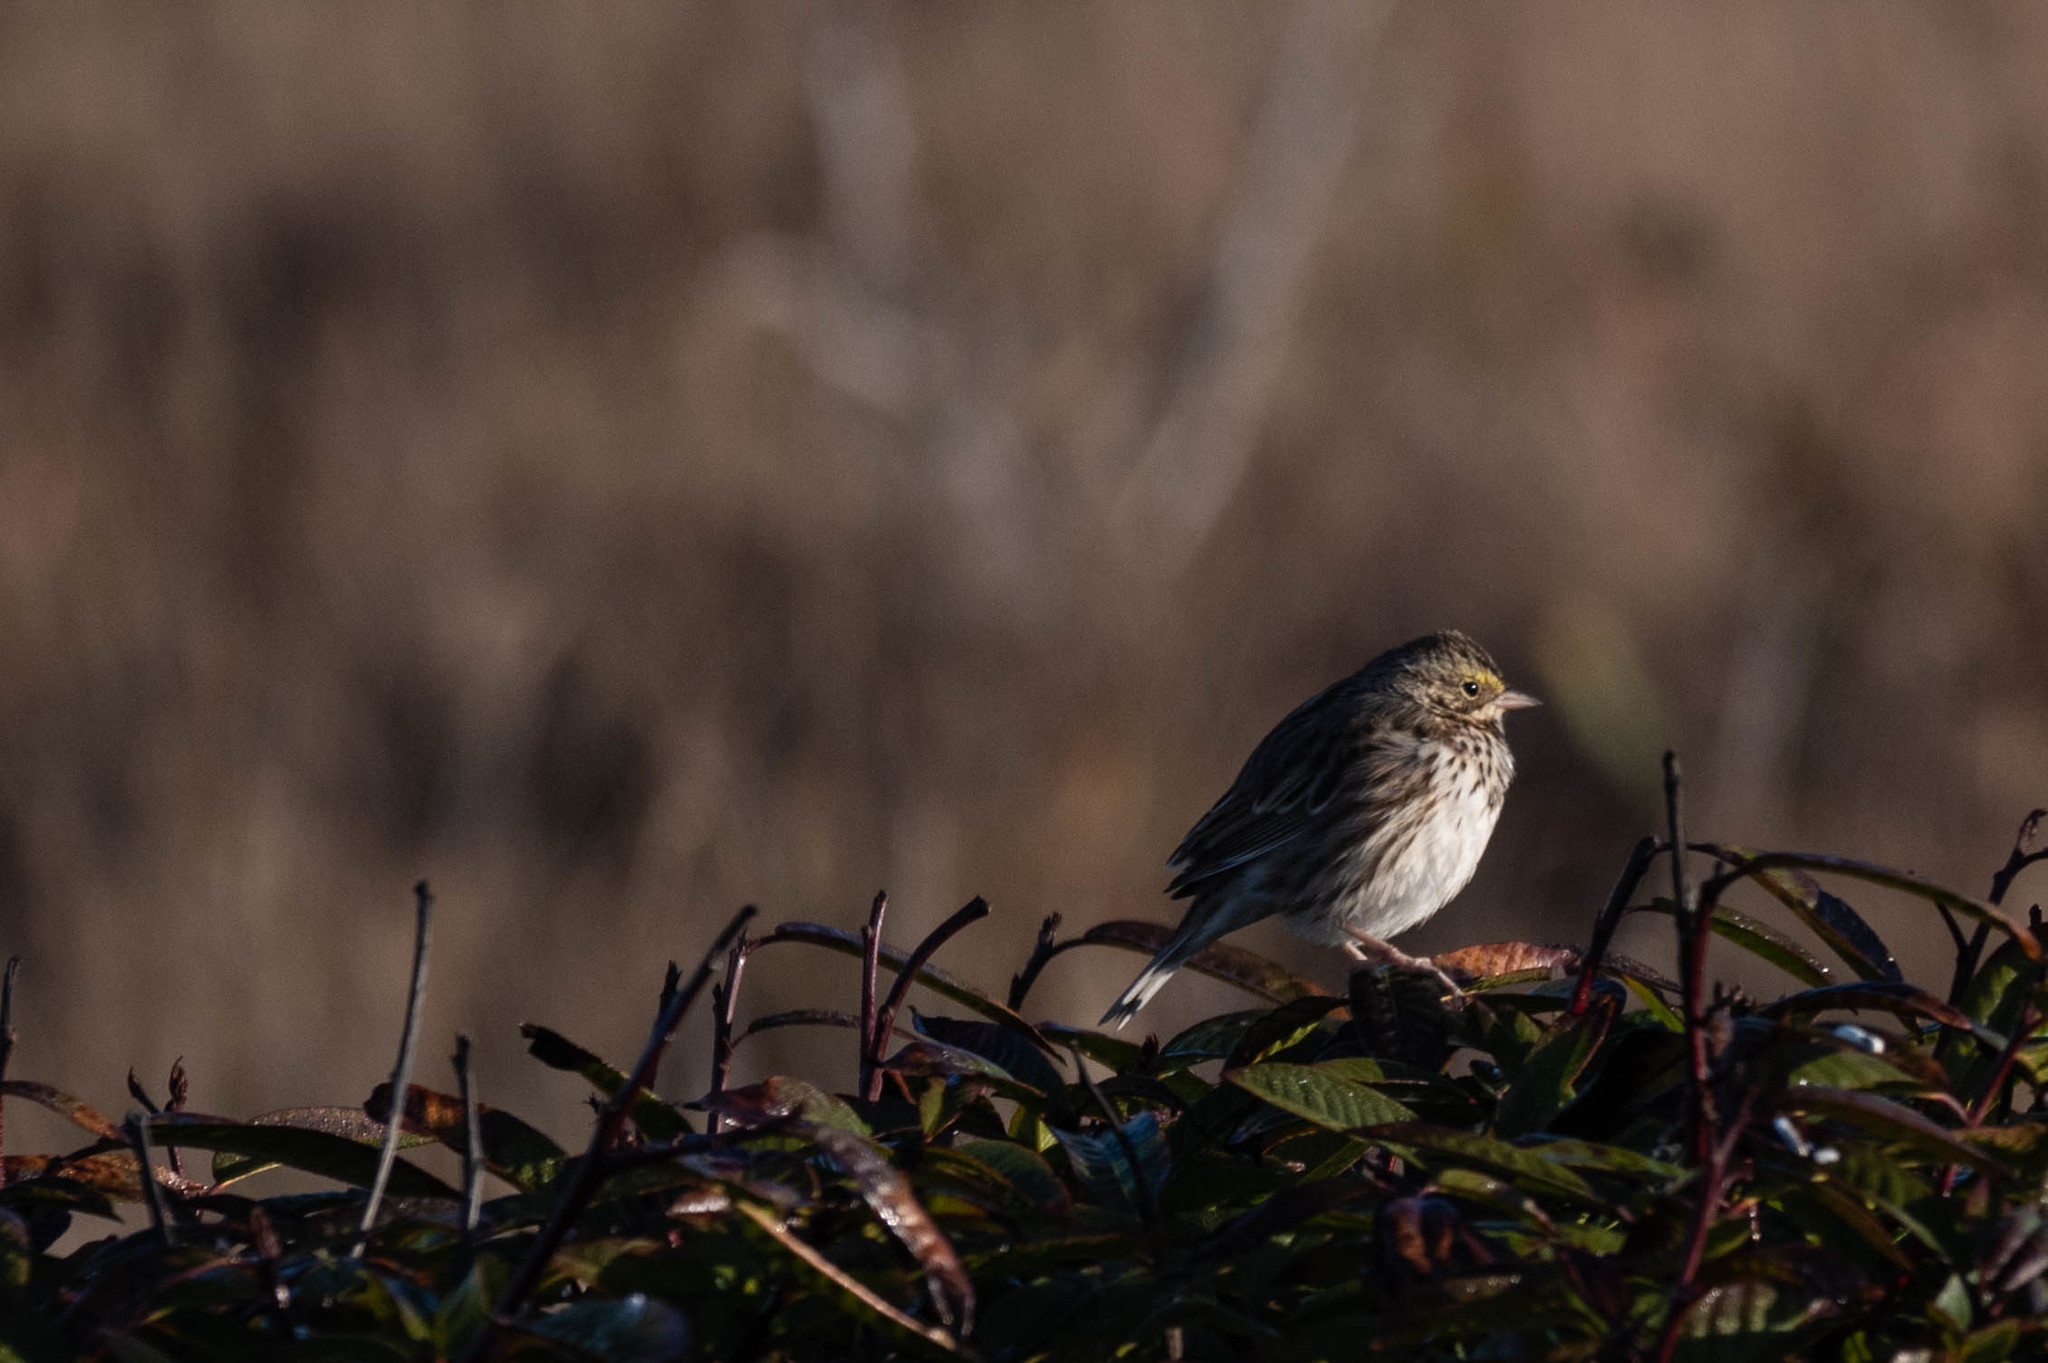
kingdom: Animalia
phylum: Chordata
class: Aves
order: Passeriformes
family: Passerellidae
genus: Passerculus
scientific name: Passerculus sandwichensis
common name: Savannah sparrow
